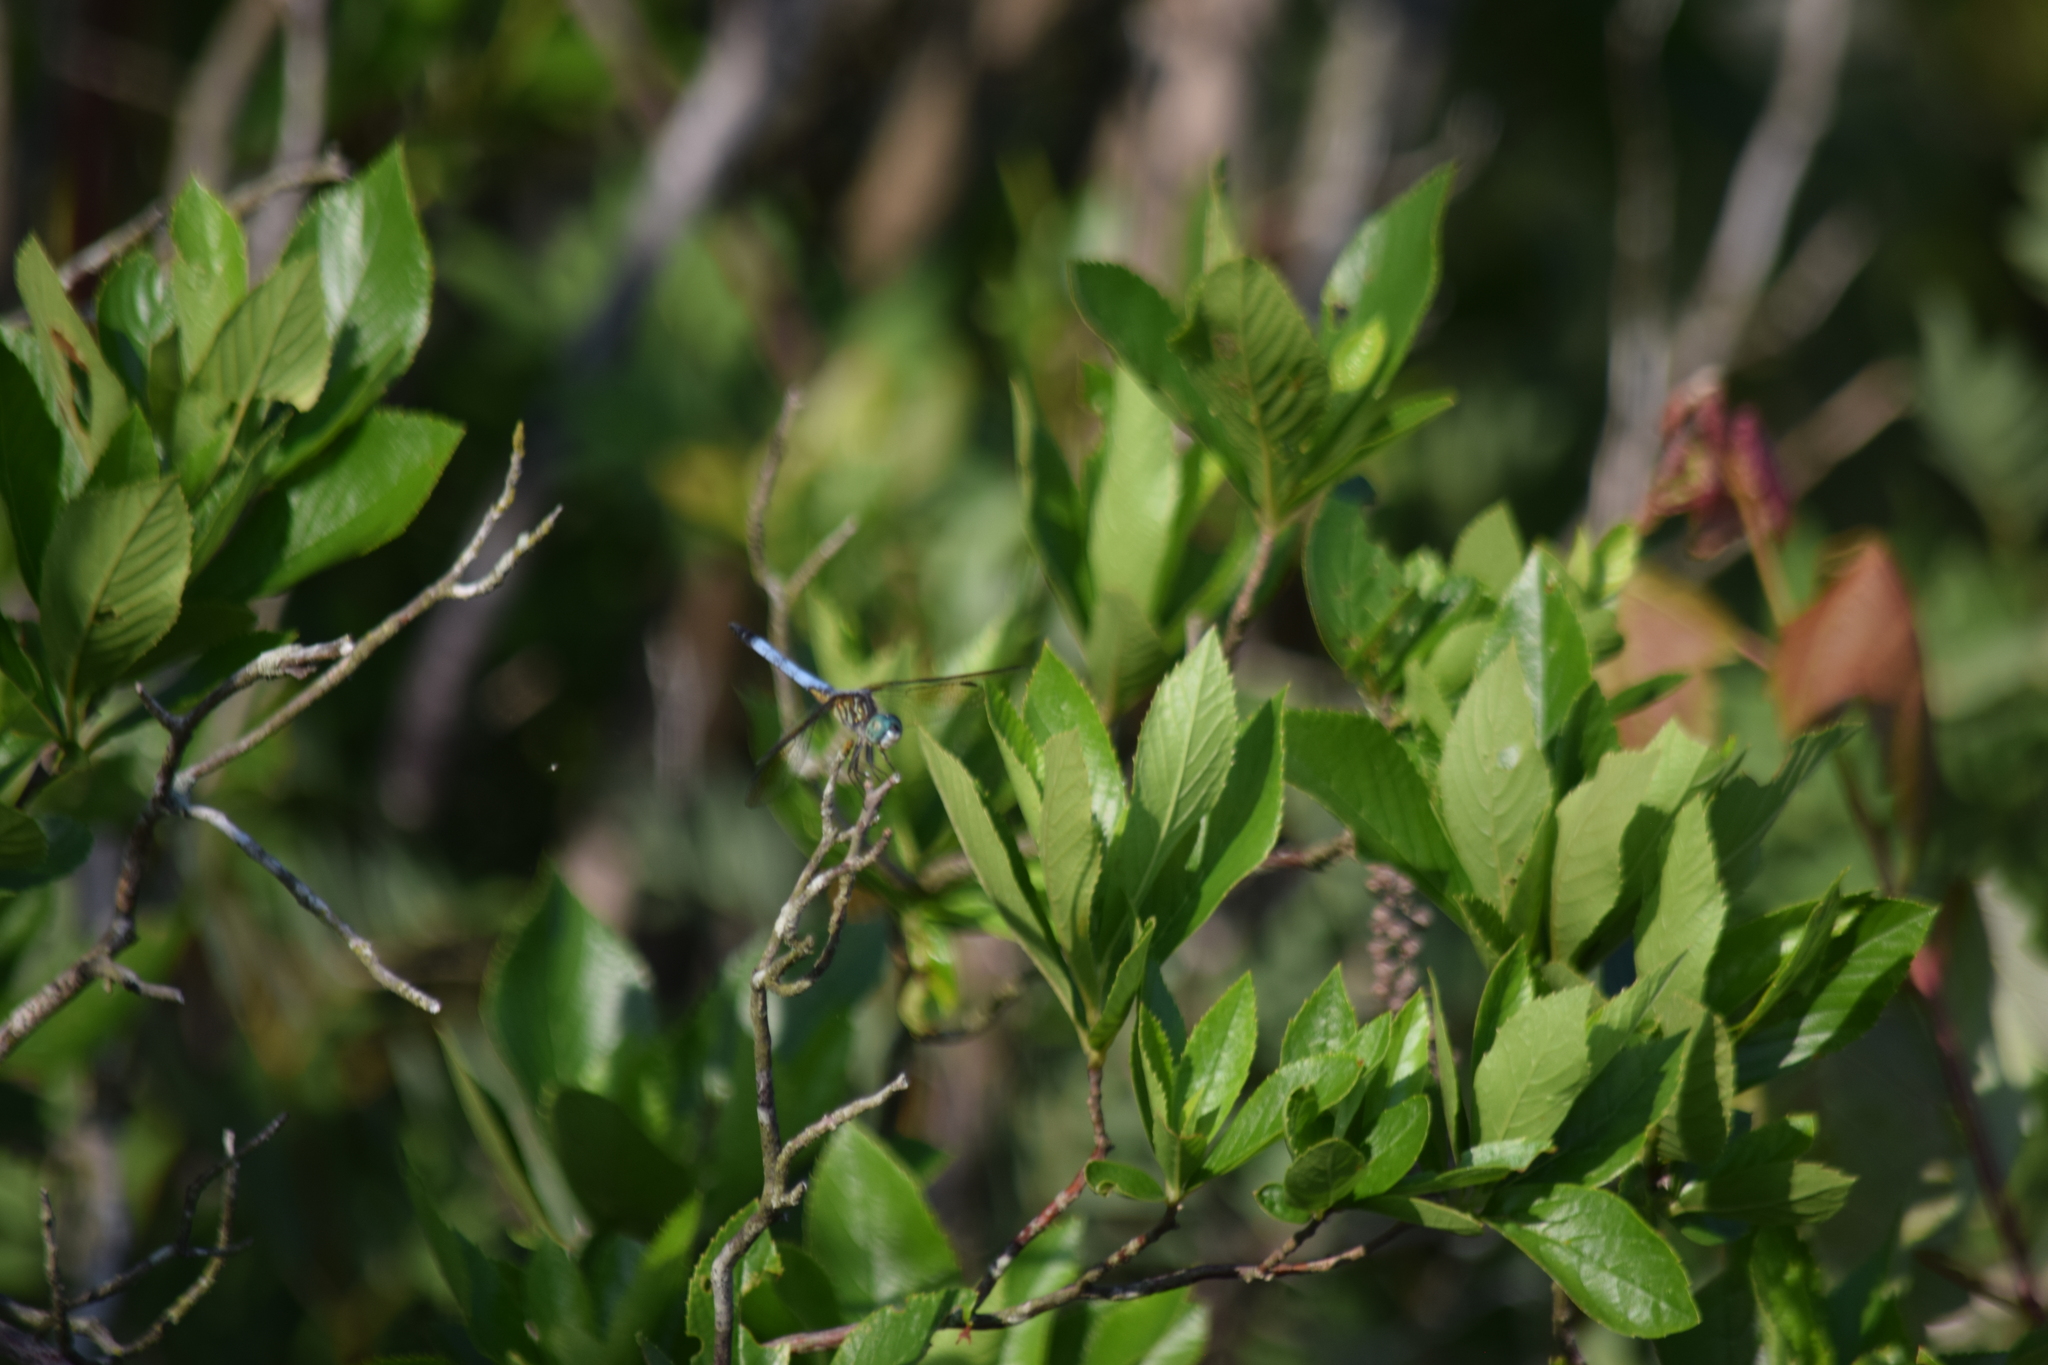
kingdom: Animalia
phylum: Arthropoda
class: Insecta
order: Odonata
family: Libellulidae
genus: Pachydiplax
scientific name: Pachydiplax longipennis
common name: Blue dasher
